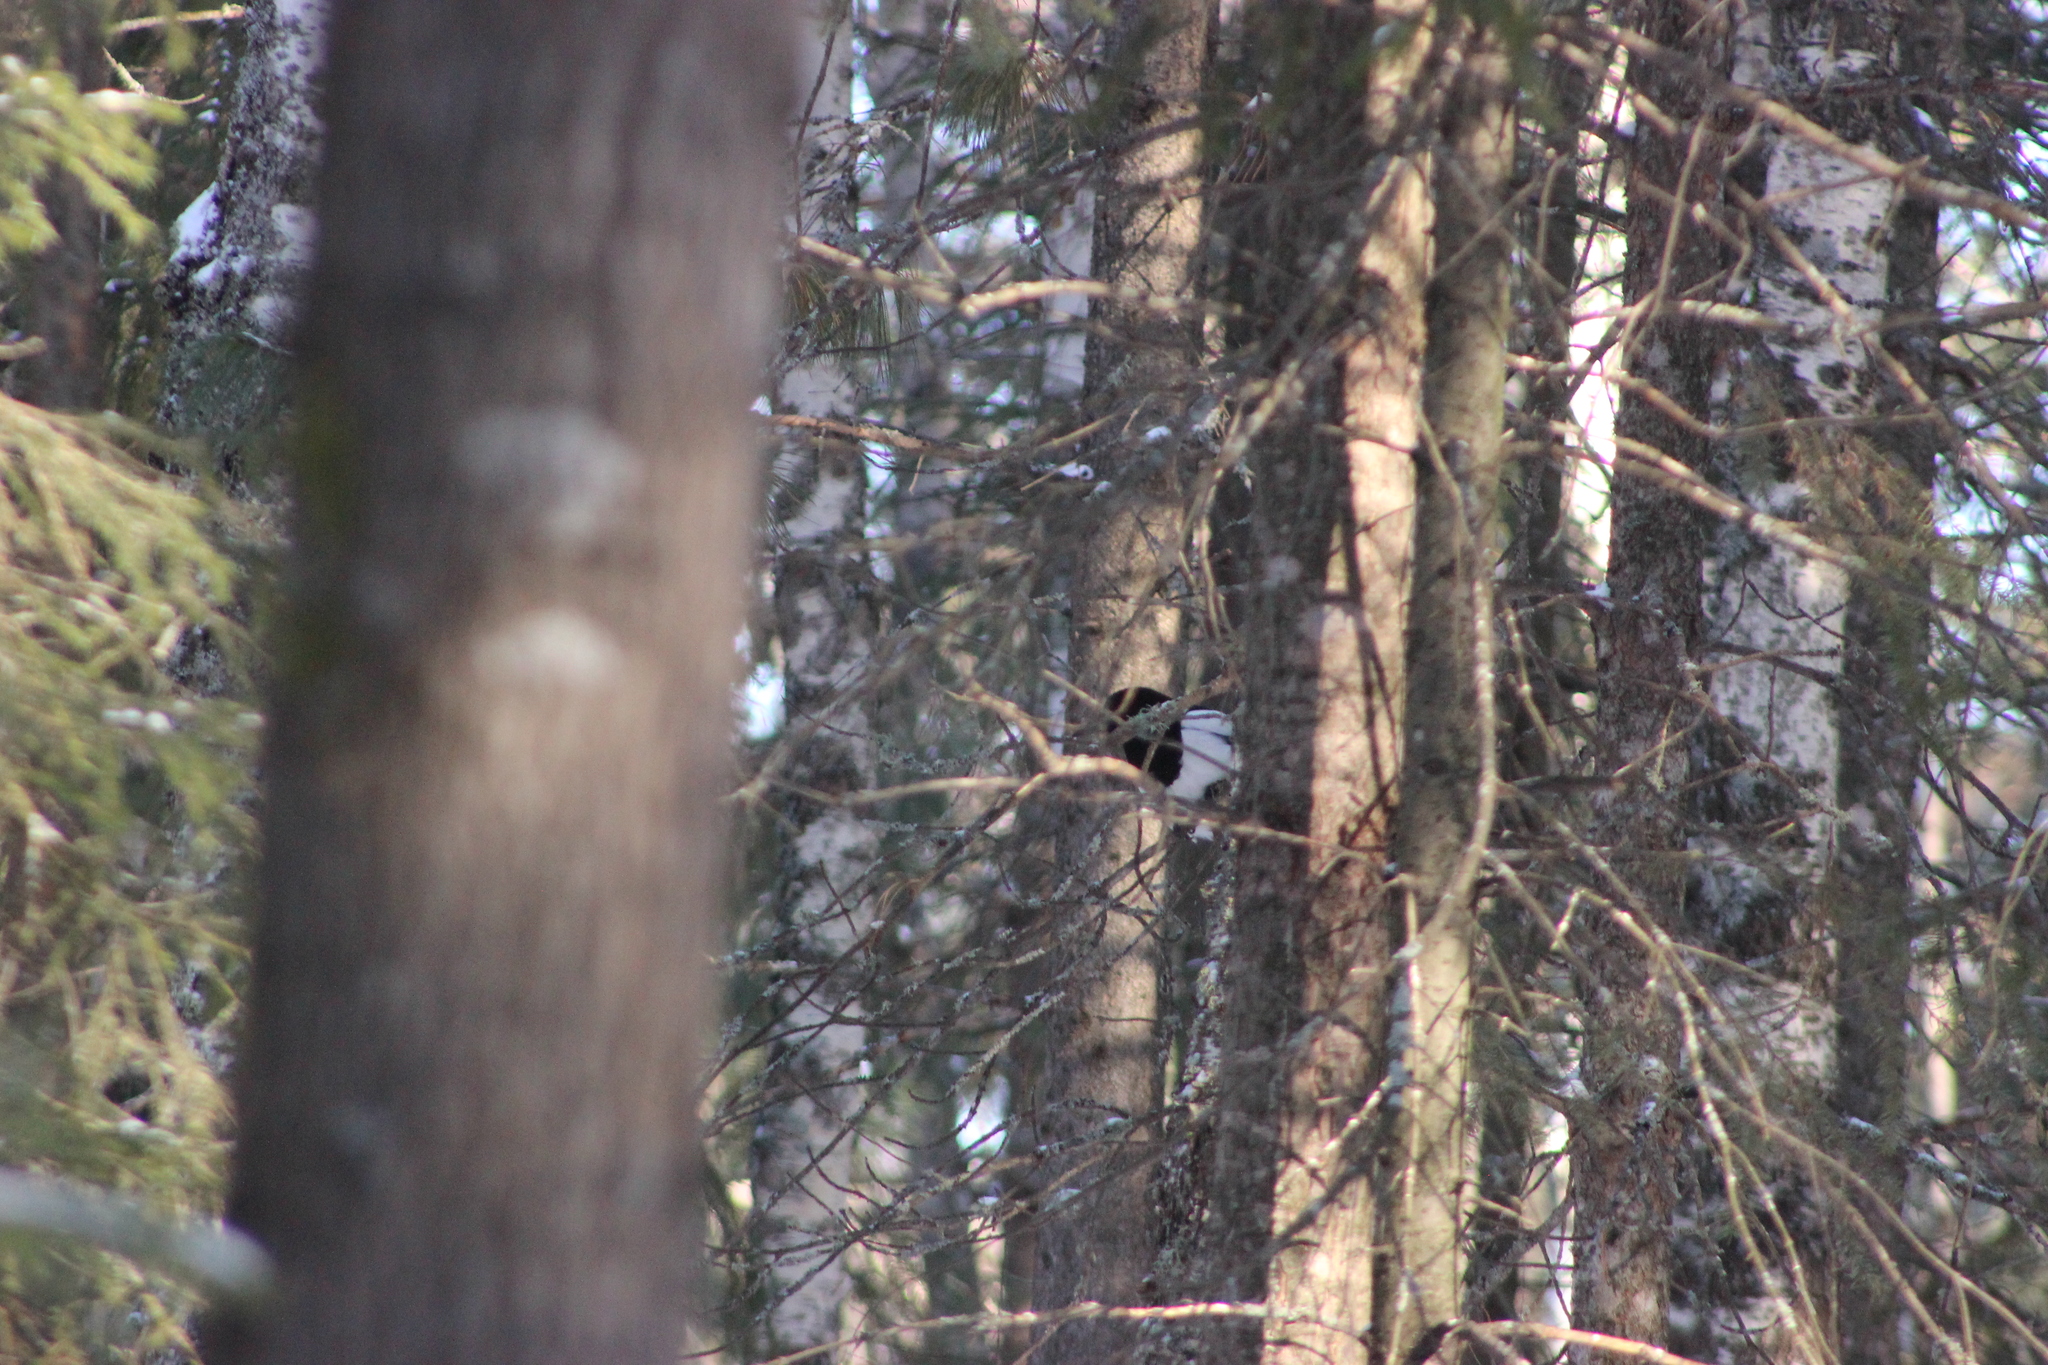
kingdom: Animalia
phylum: Chordata
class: Aves
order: Passeriformes
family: Corvidae
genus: Pica
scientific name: Pica pica
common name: Eurasian magpie
